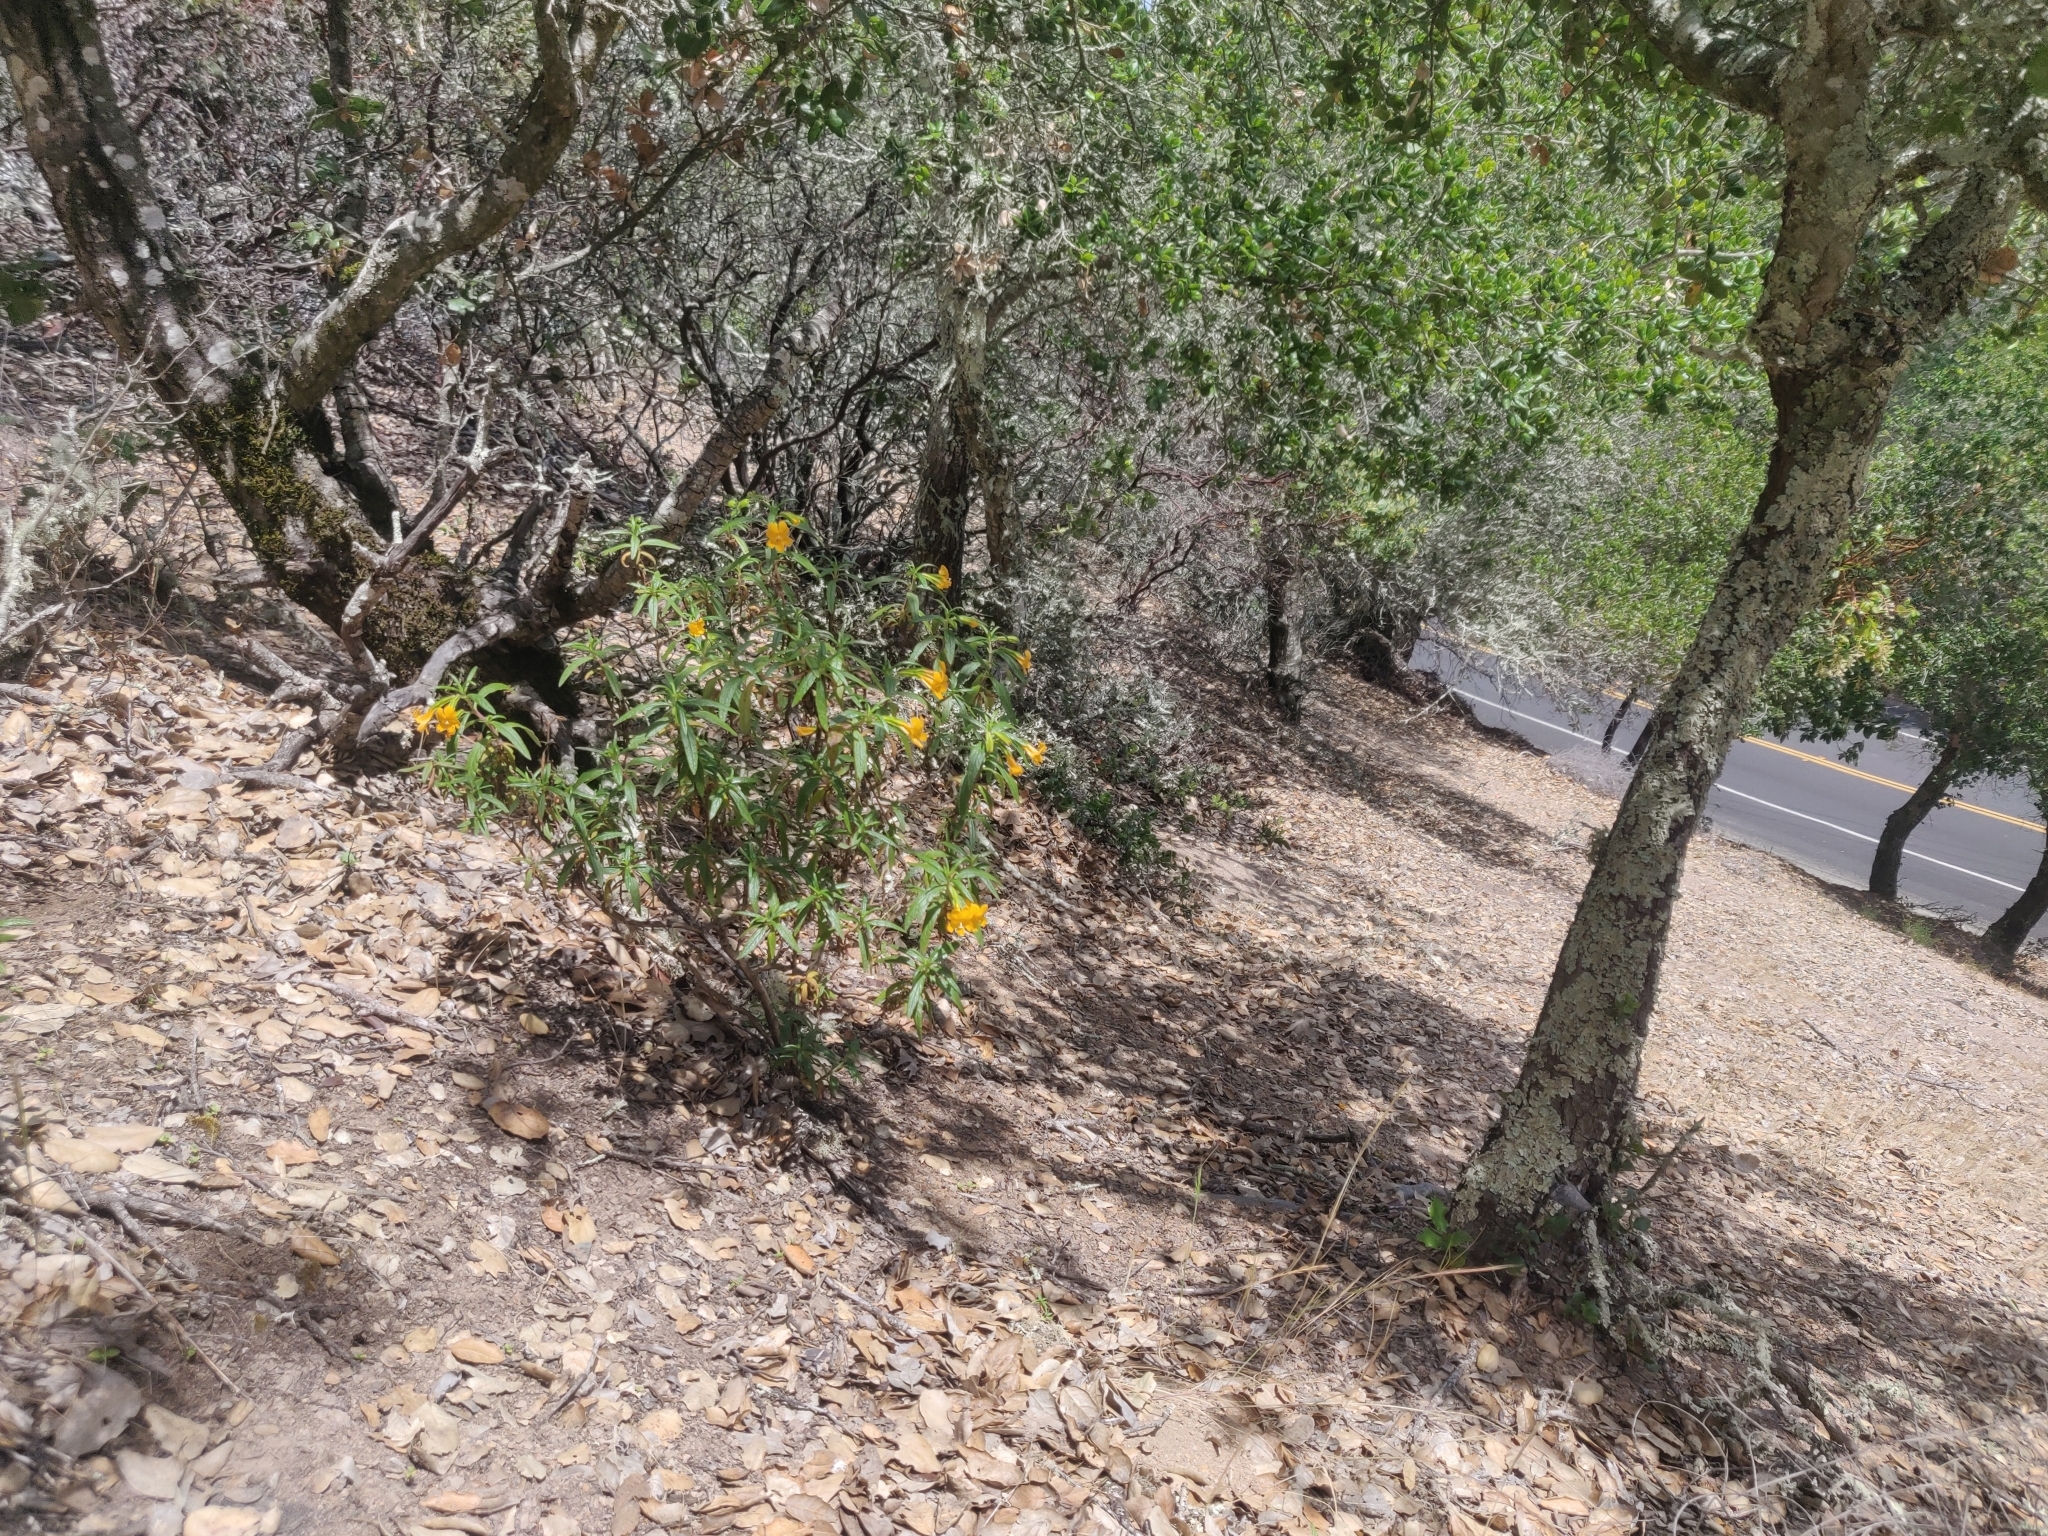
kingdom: Plantae
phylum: Tracheophyta
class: Magnoliopsida
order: Lamiales
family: Phrymaceae
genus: Diplacus
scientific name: Diplacus aurantiacus
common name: Bush monkey-flower
